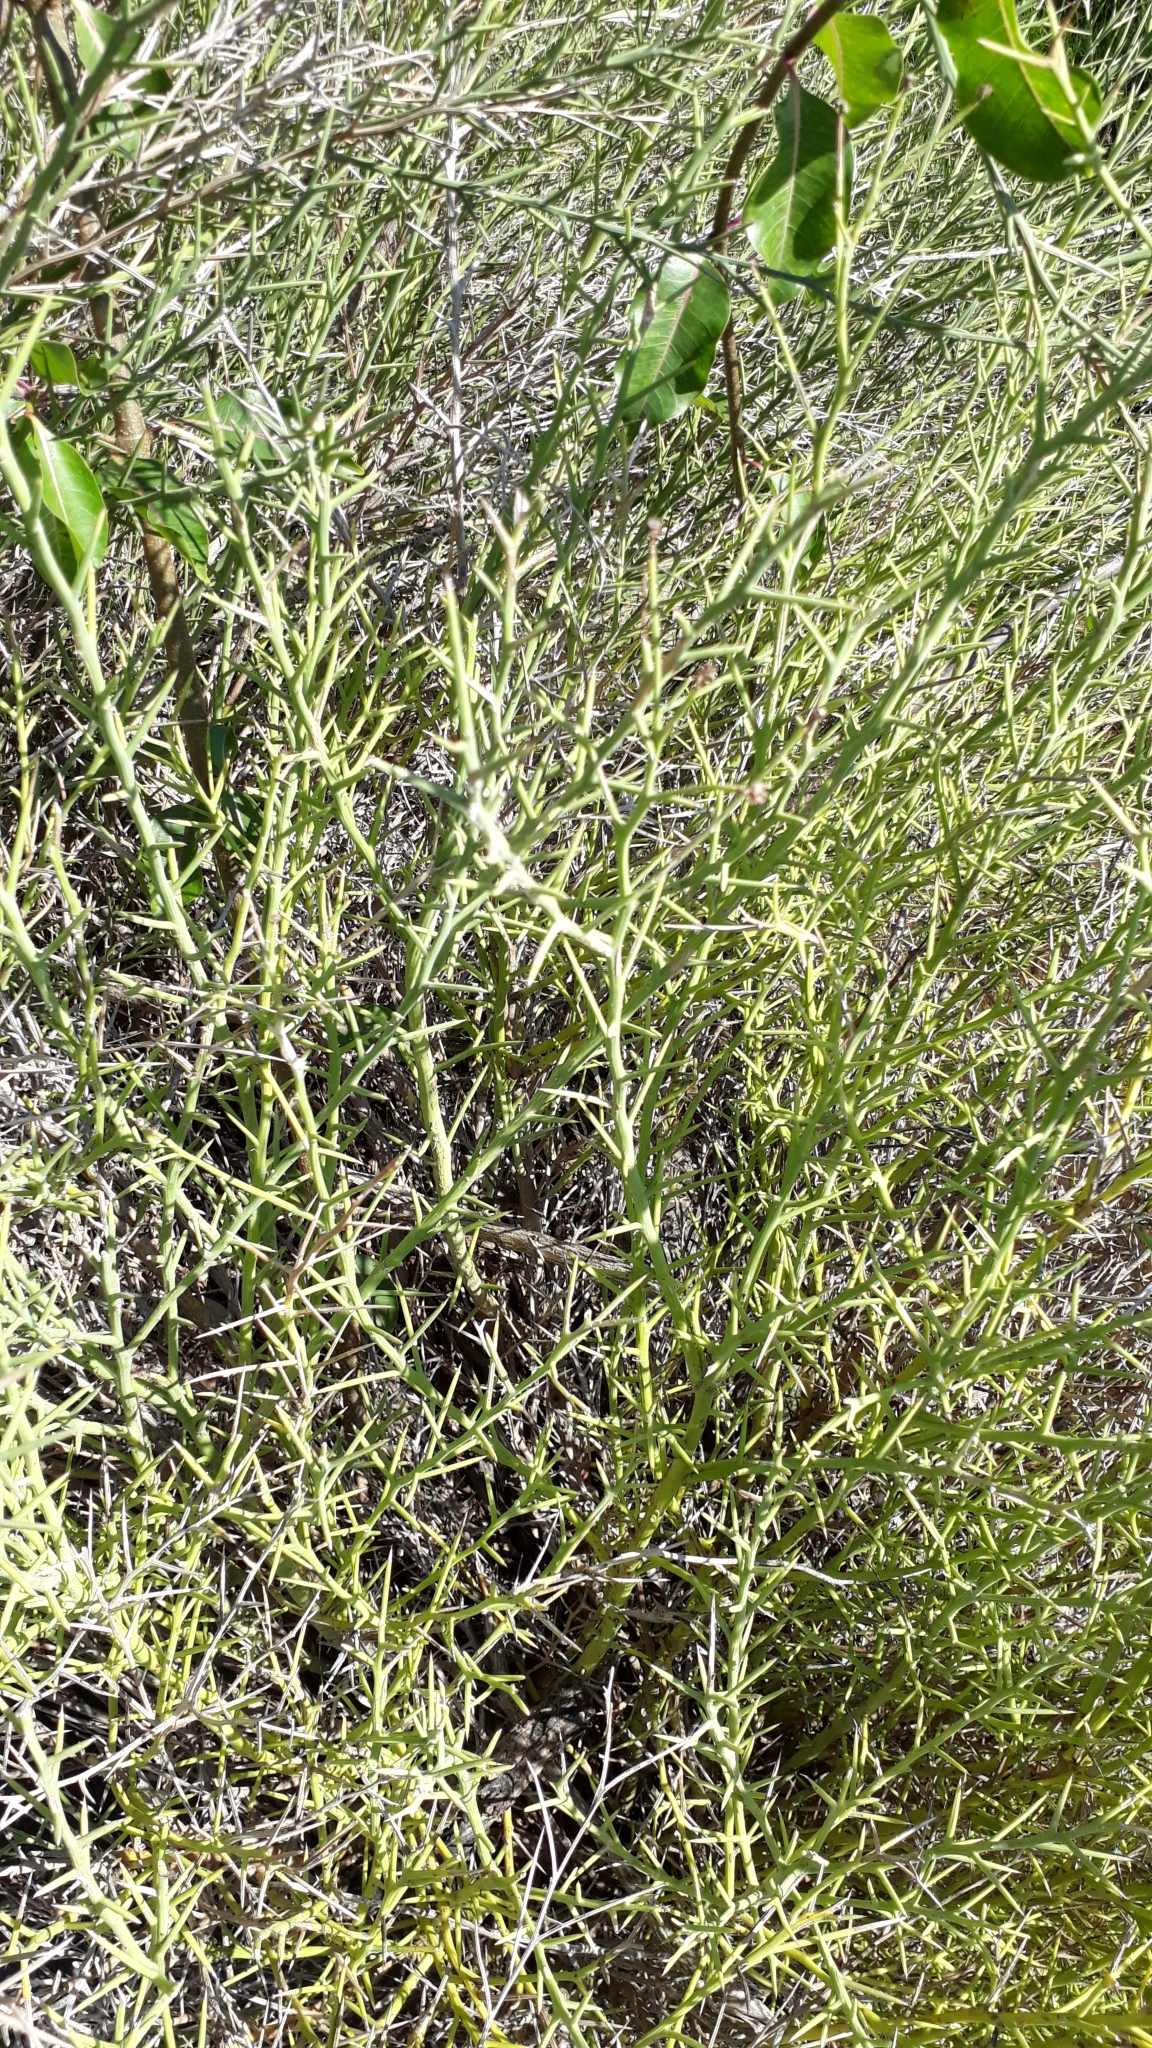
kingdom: Plantae
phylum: Tracheophyta
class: Magnoliopsida
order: Asterales
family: Asteraceae
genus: Chloracantha
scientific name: Chloracantha spinosissima
